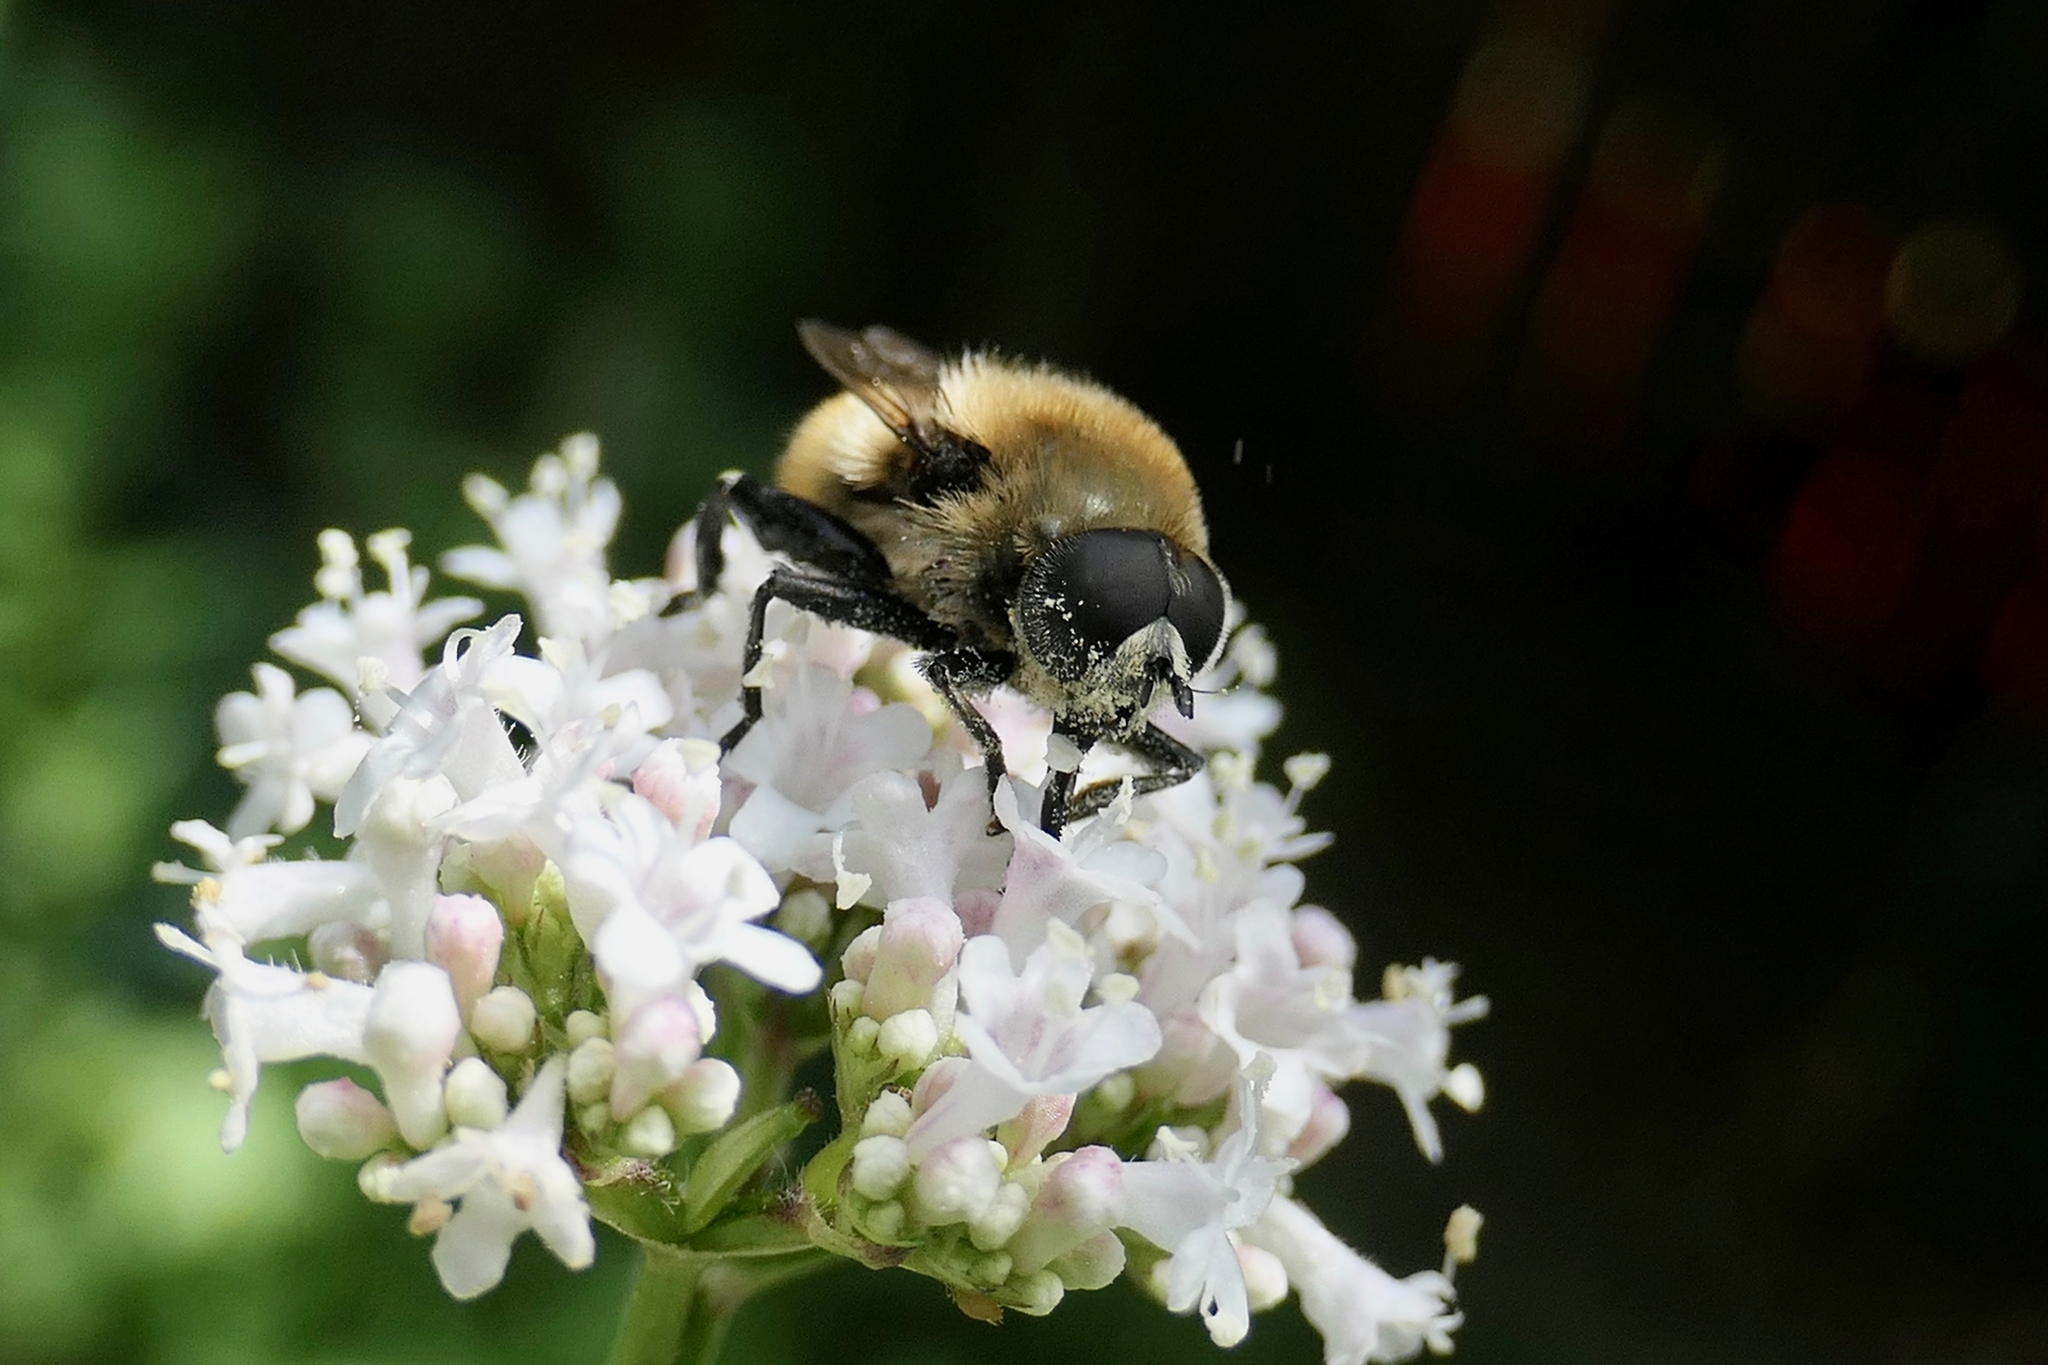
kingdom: Animalia
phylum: Arthropoda
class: Insecta
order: Diptera
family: Syrphidae
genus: Merodon
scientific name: Merodon equestris
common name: Greater bulb-fly
